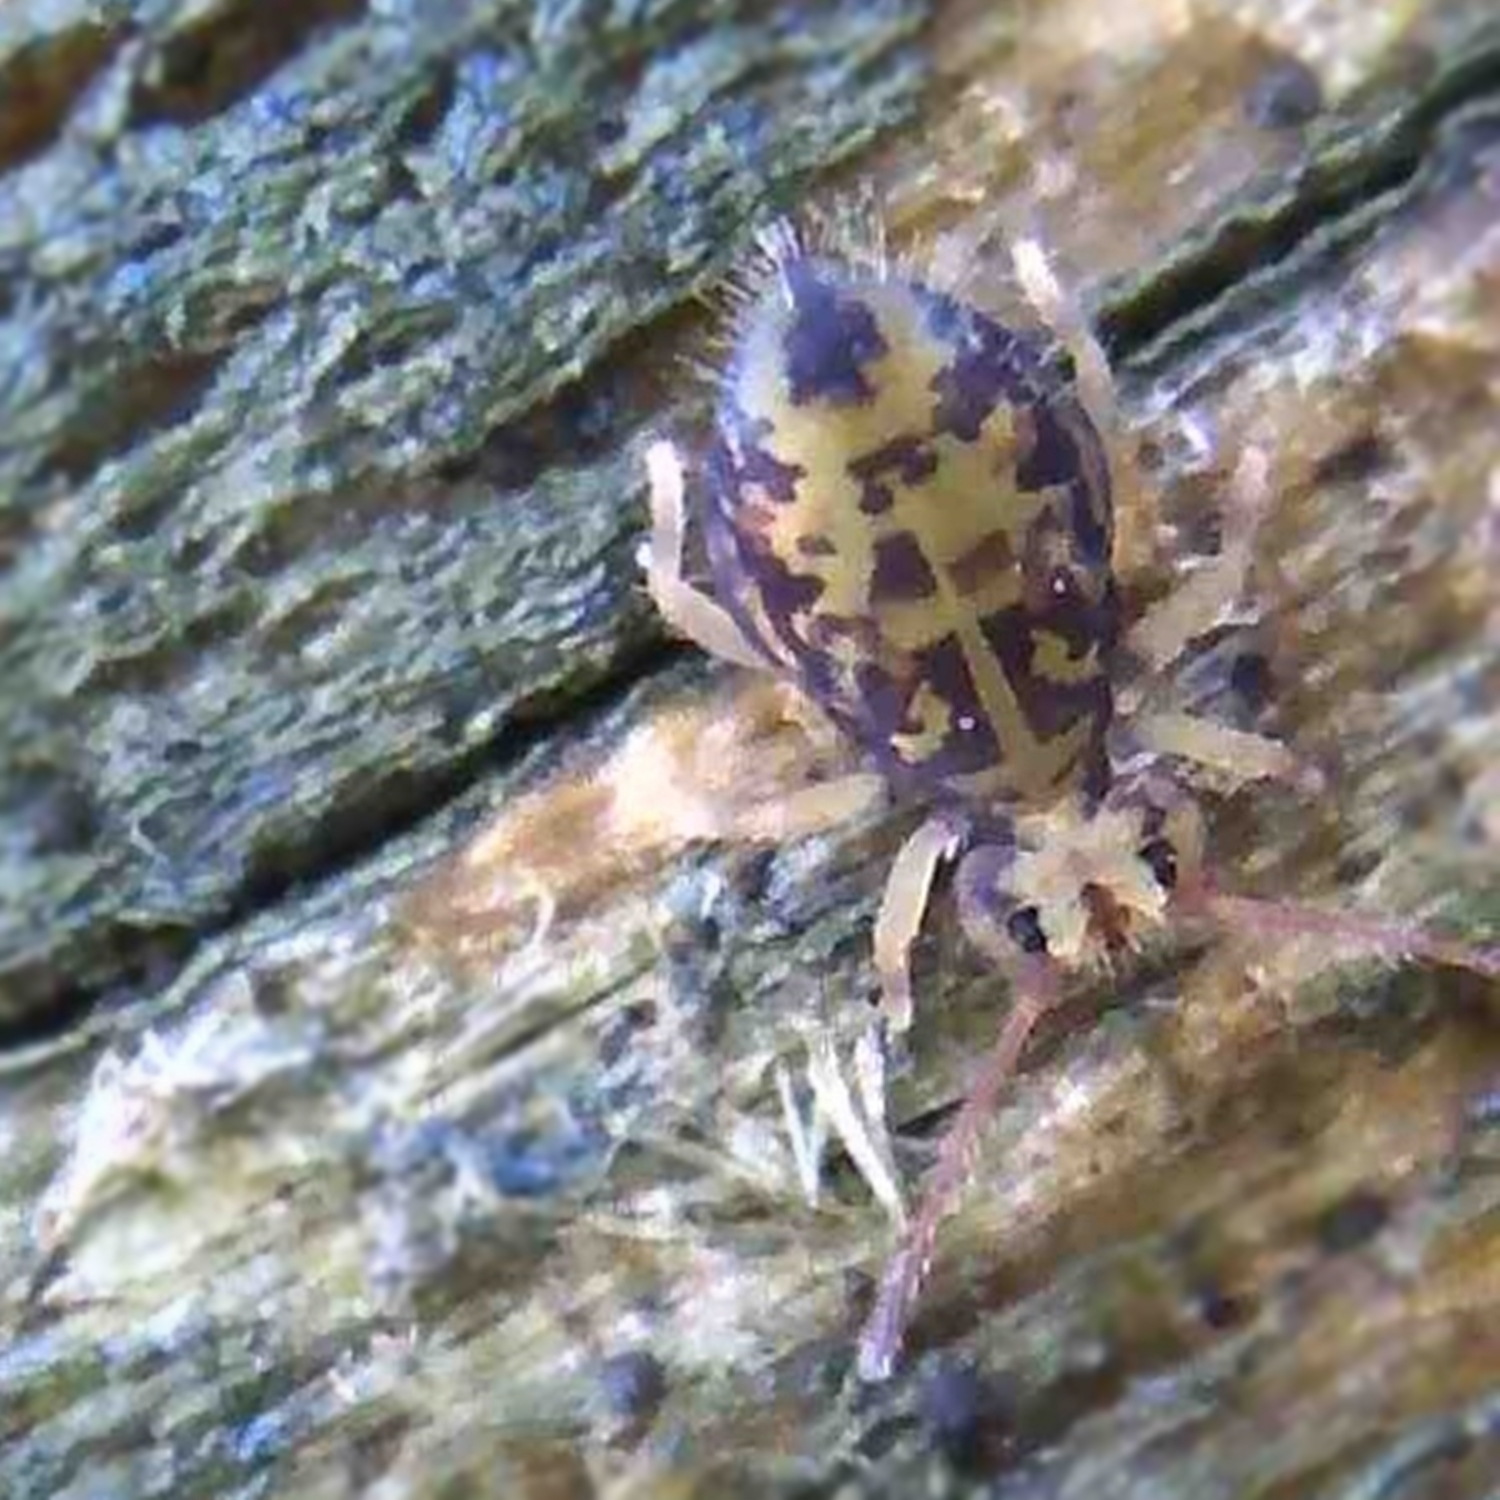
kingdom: Animalia
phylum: Arthropoda
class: Collembola
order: Symphypleona
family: Dicyrtomidae
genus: Dicyrtomina
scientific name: Dicyrtomina ornata
